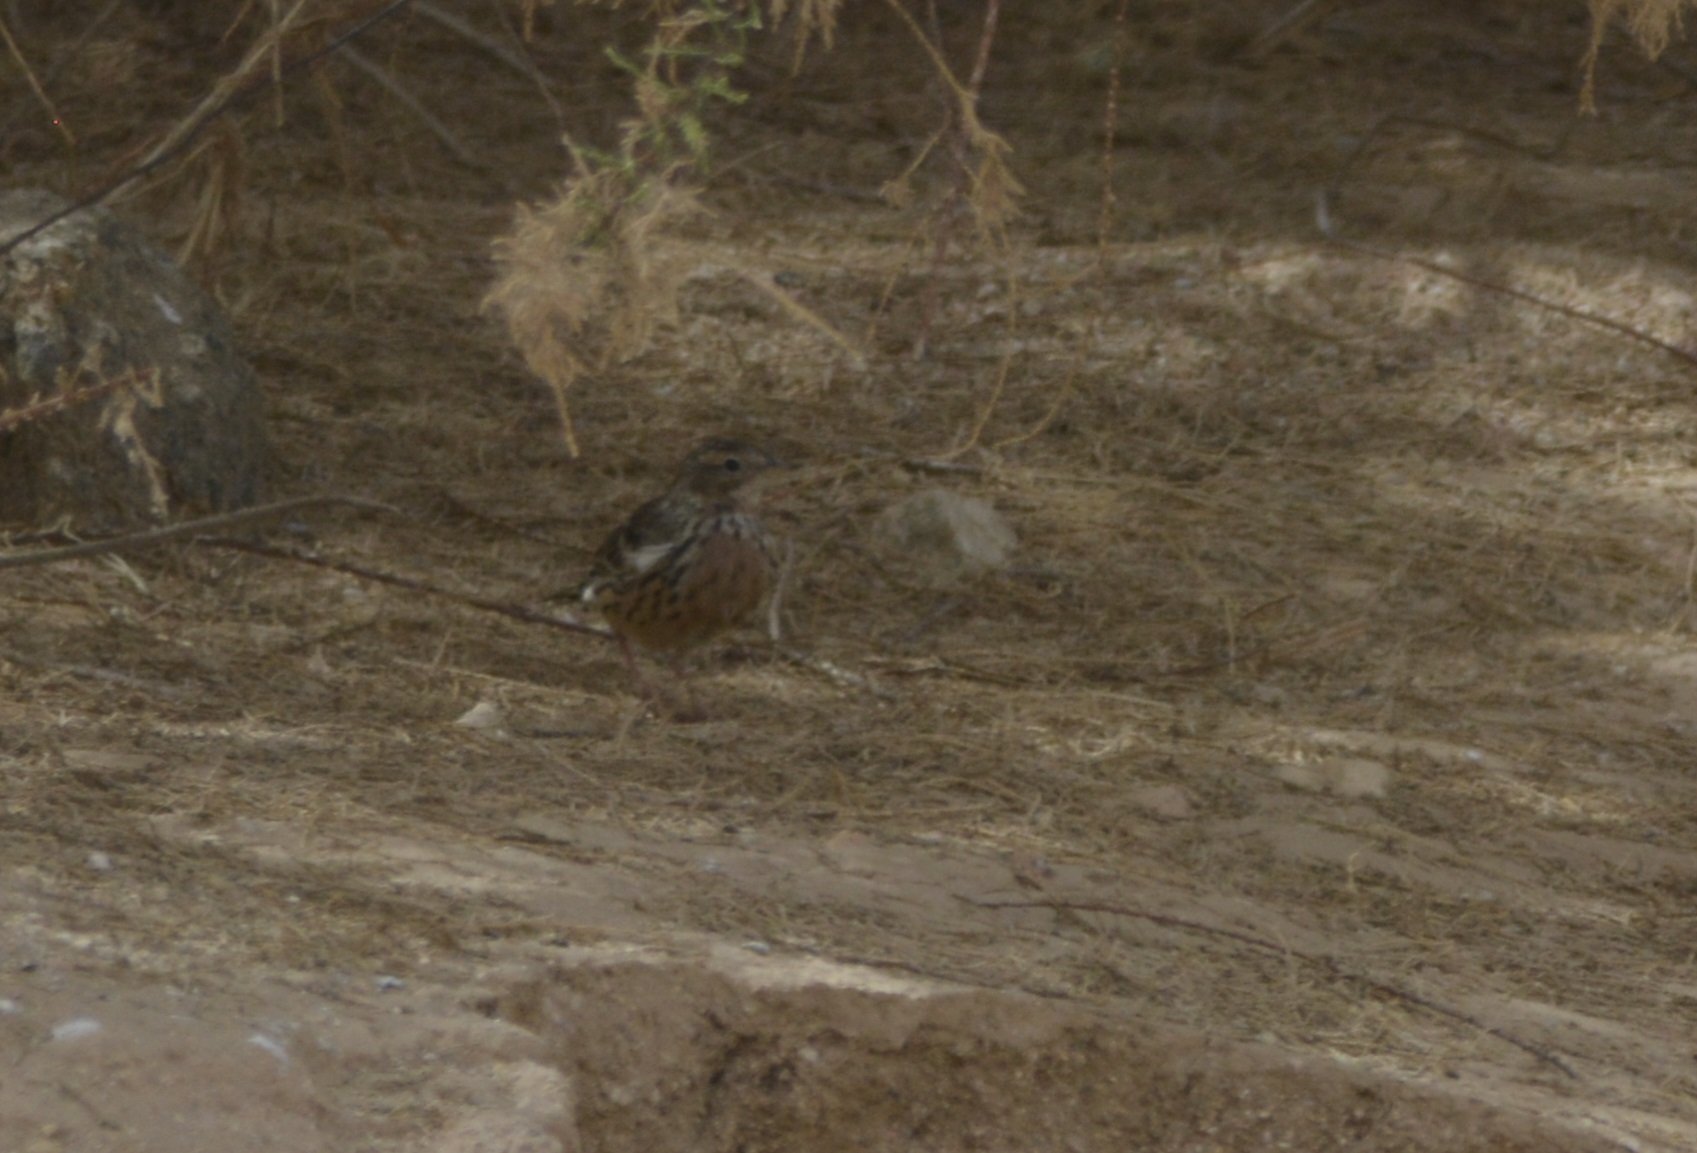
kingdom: Animalia
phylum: Chordata
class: Aves
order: Passeriformes
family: Motacillidae
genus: Anthus
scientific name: Anthus cervinus
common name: Red-throated pipit
